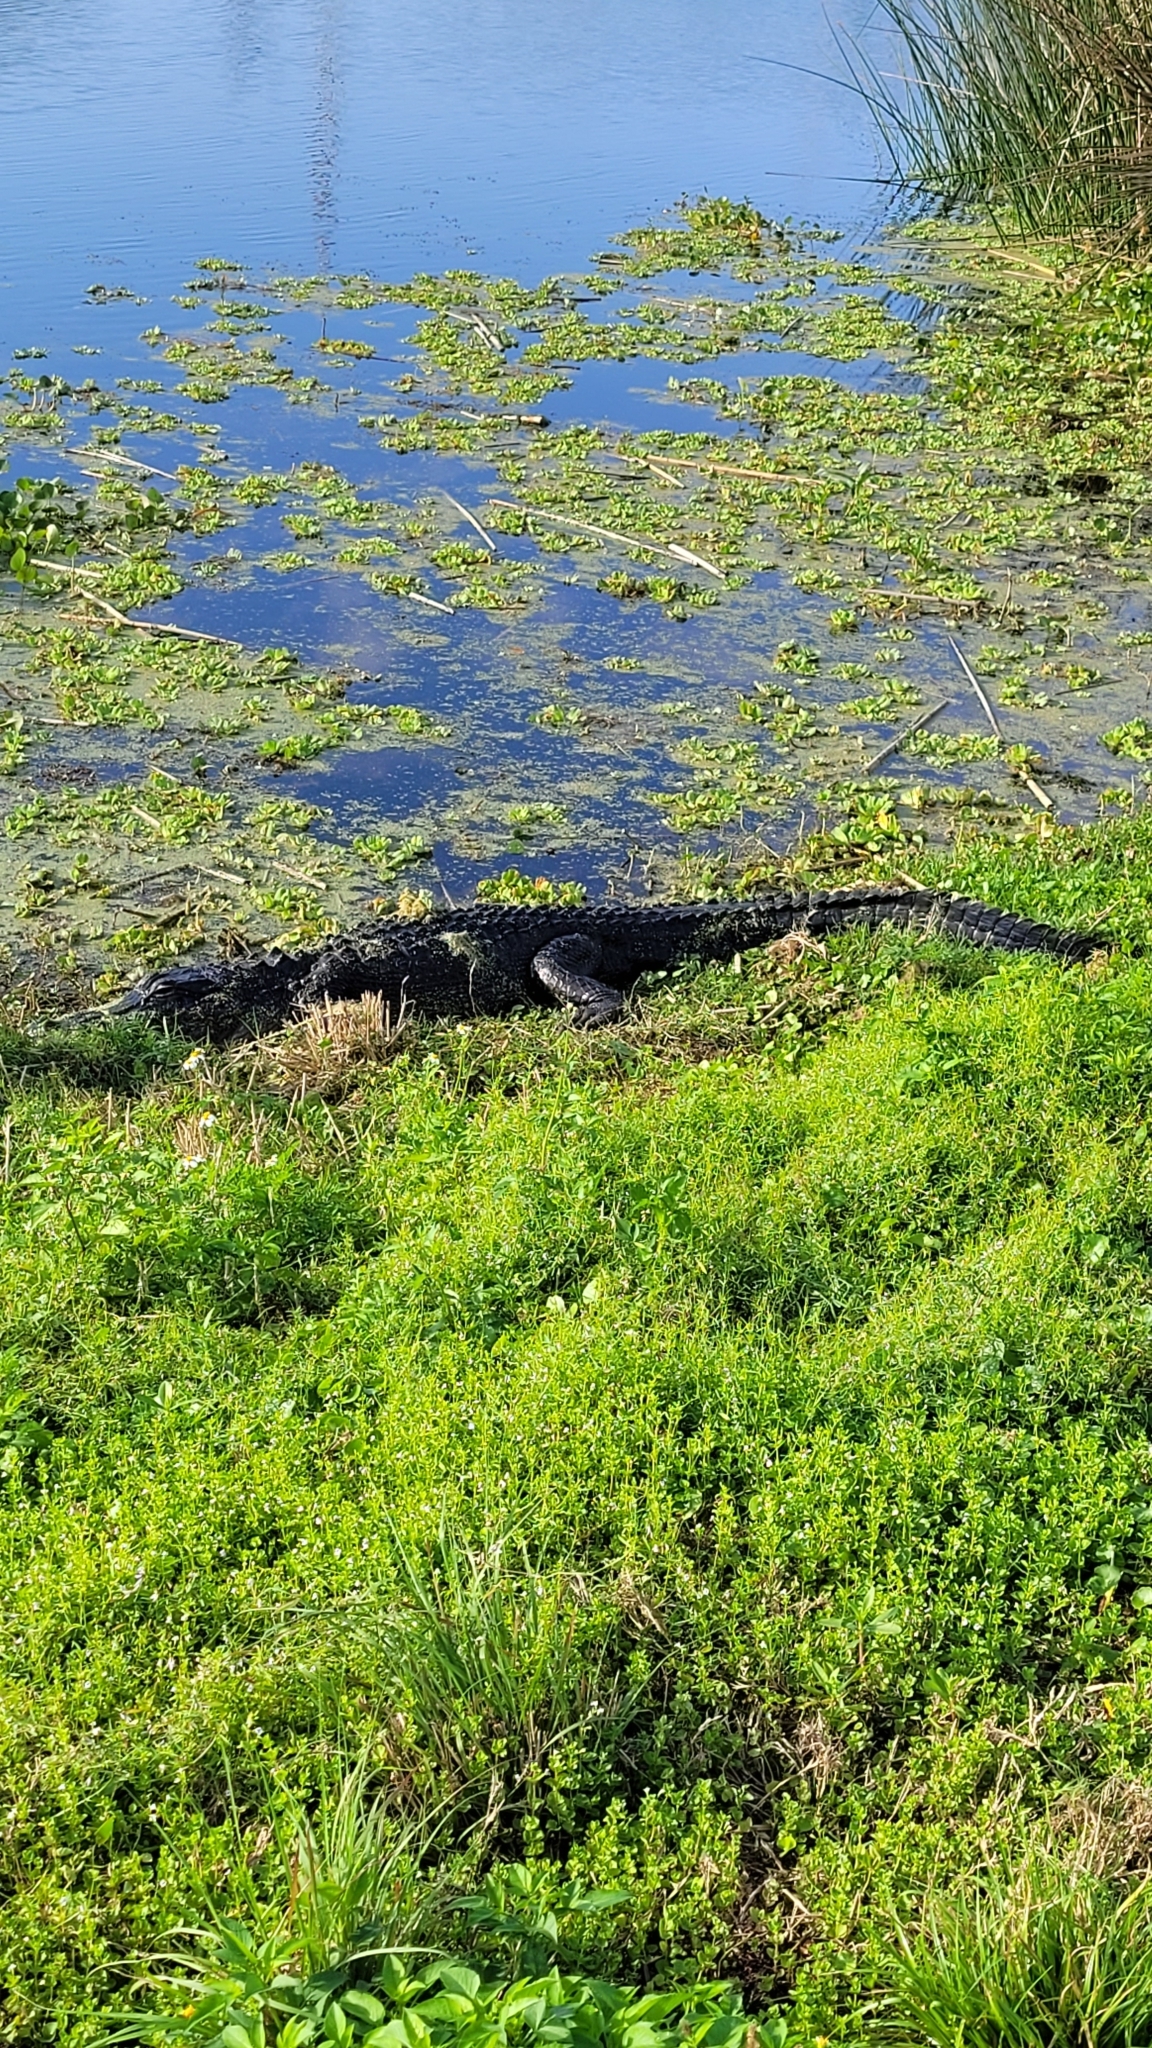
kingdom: Animalia
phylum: Chordata
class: Crocodylia
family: Alligatoridae
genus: Alligator
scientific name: Alligator mississippiensis
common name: American alligator
